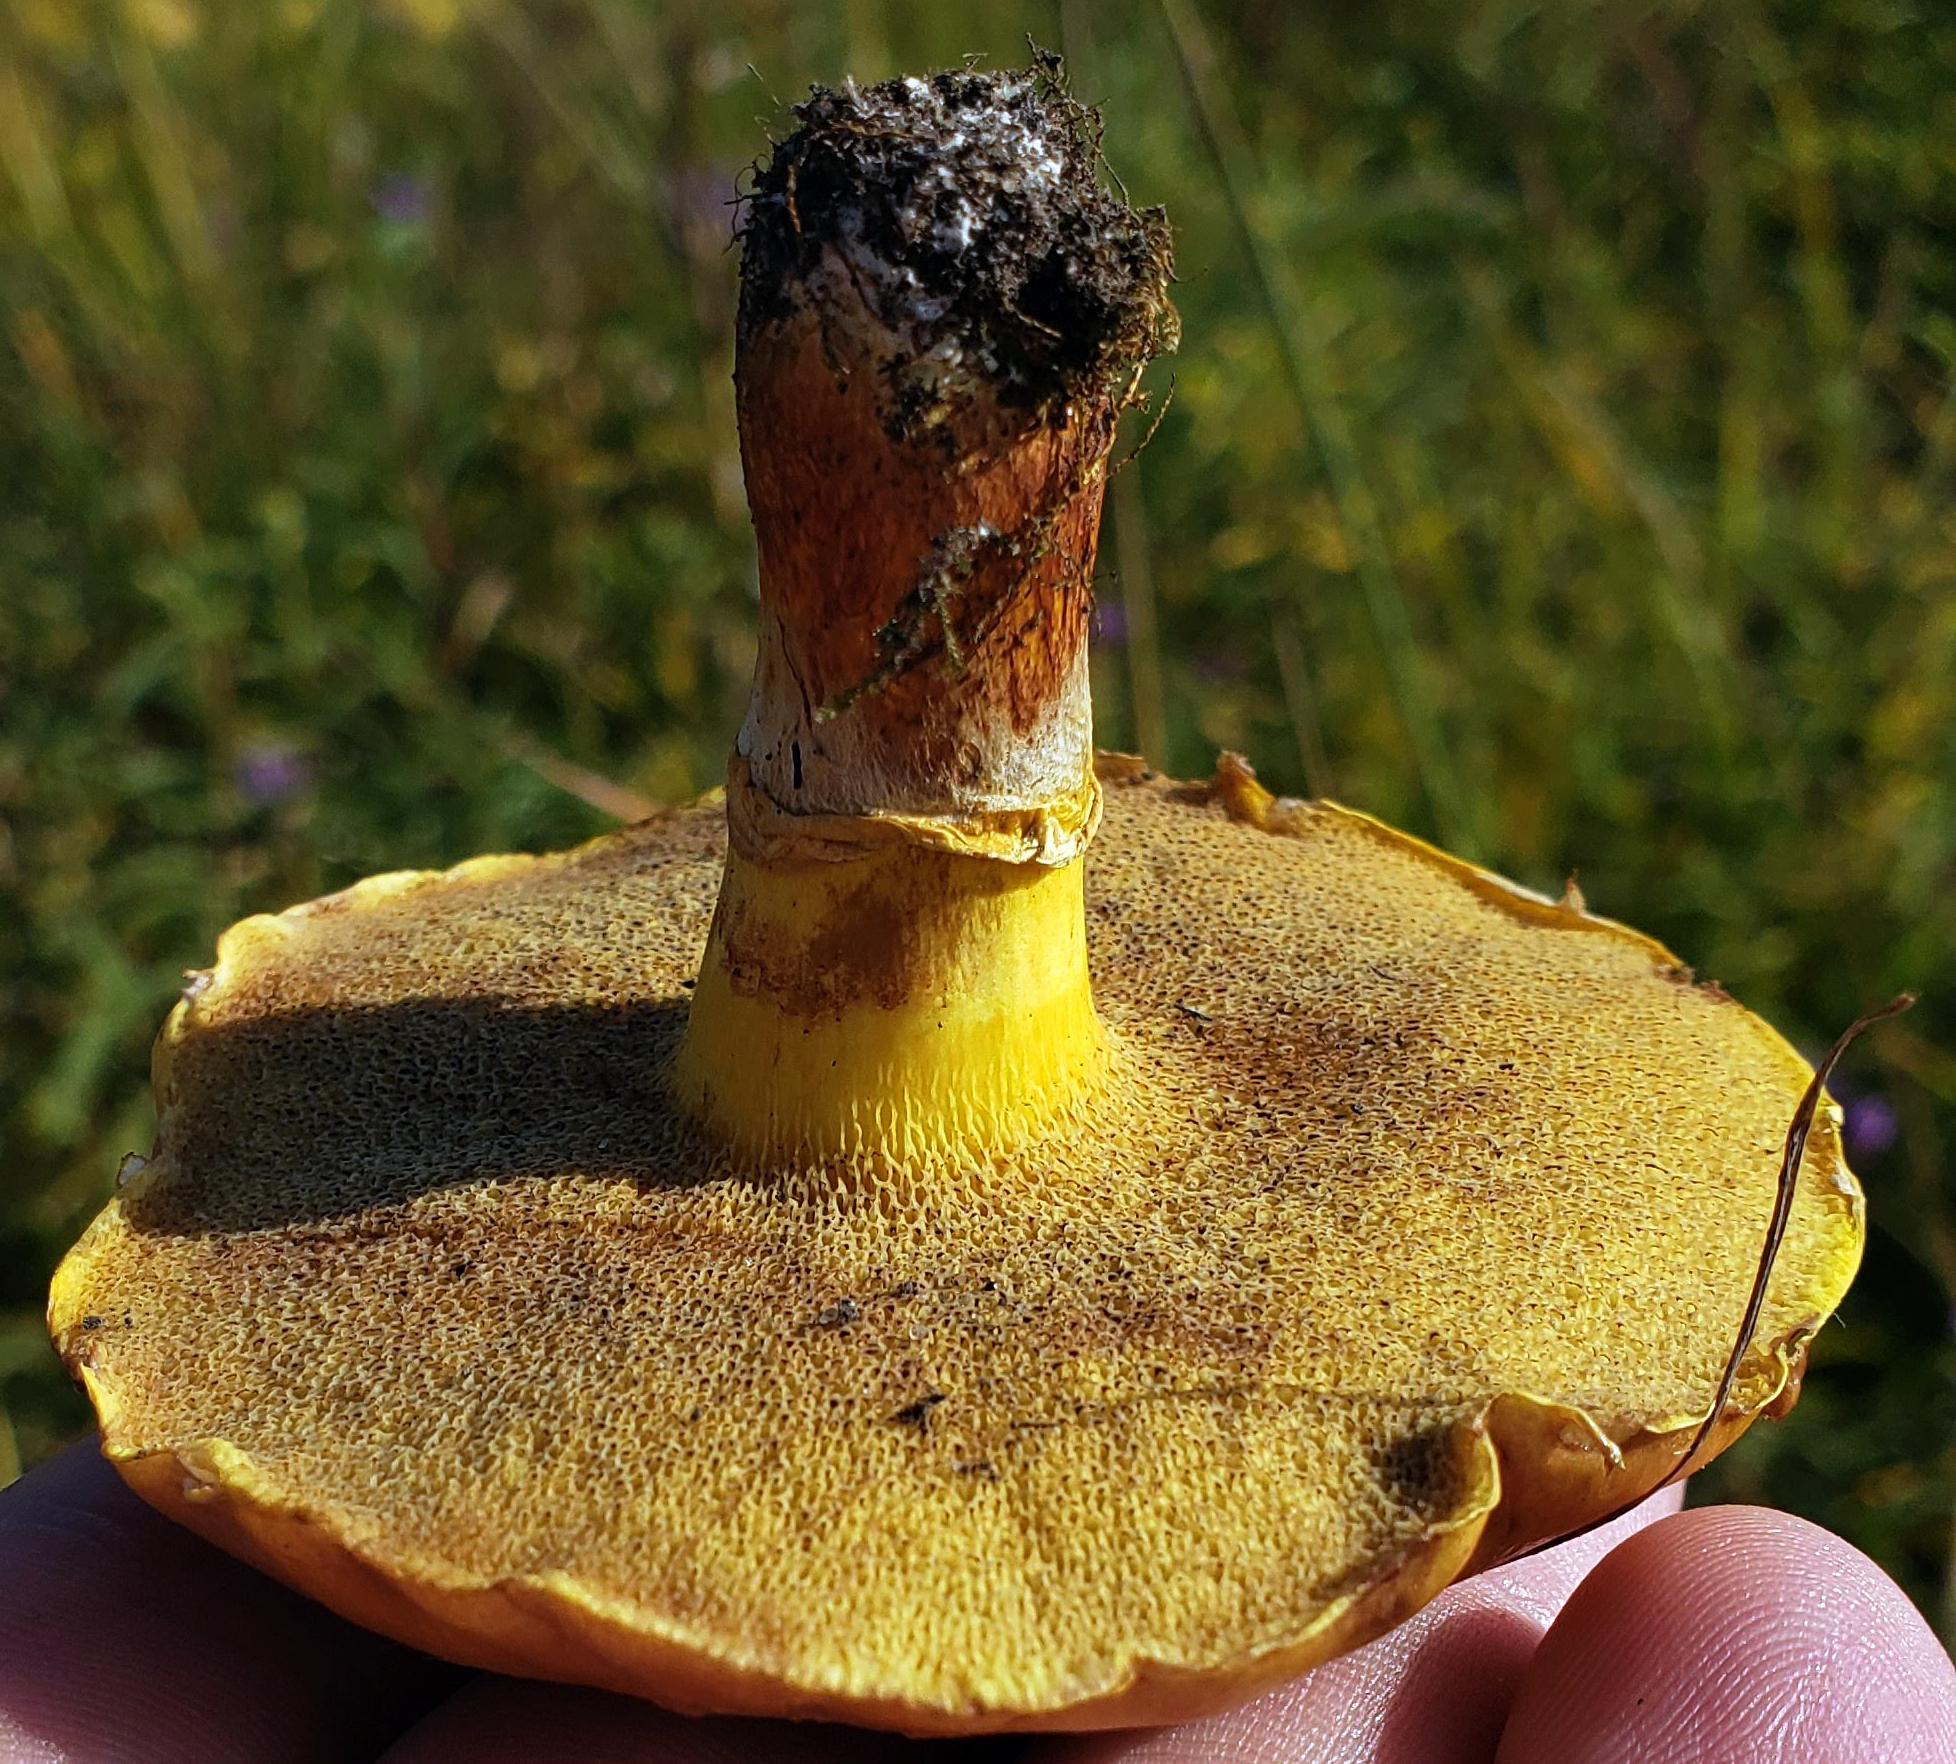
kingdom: Fungi
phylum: Basidiomycota
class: Agaricomycetes
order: Boletales
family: Suillaceae
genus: Suillus
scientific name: Suillus grevillei
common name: Larch bolete
